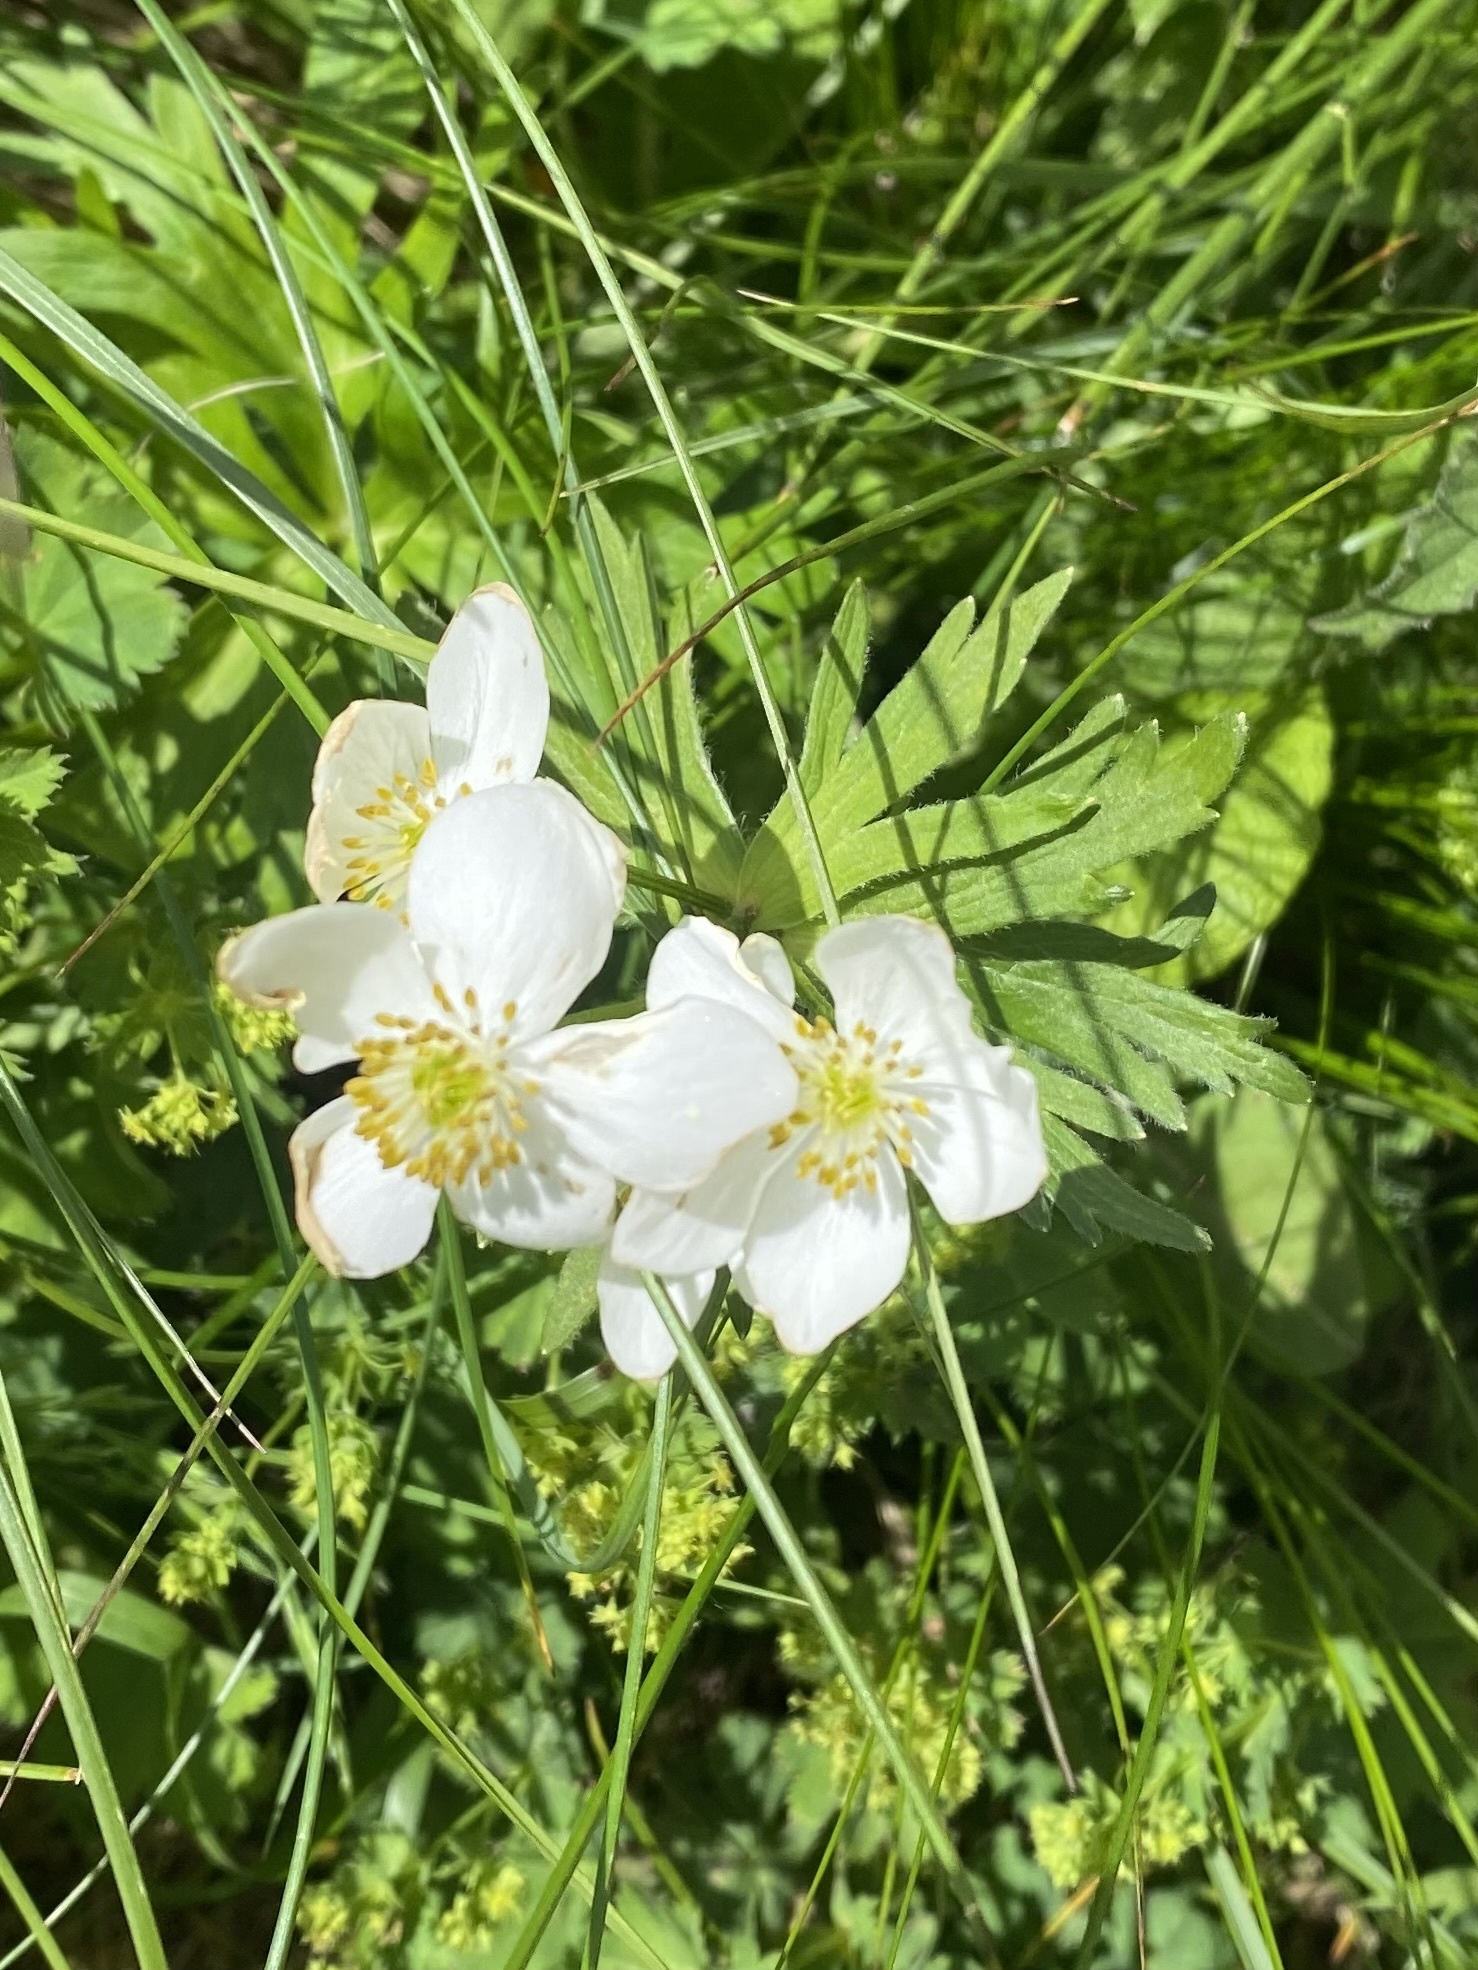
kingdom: Plantae
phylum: Tracheophyta
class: Magnoliopsida
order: Ranunculales
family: Ranunculaceae
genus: Anemonastrum
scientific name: Anemonastrum narcissiflorum
